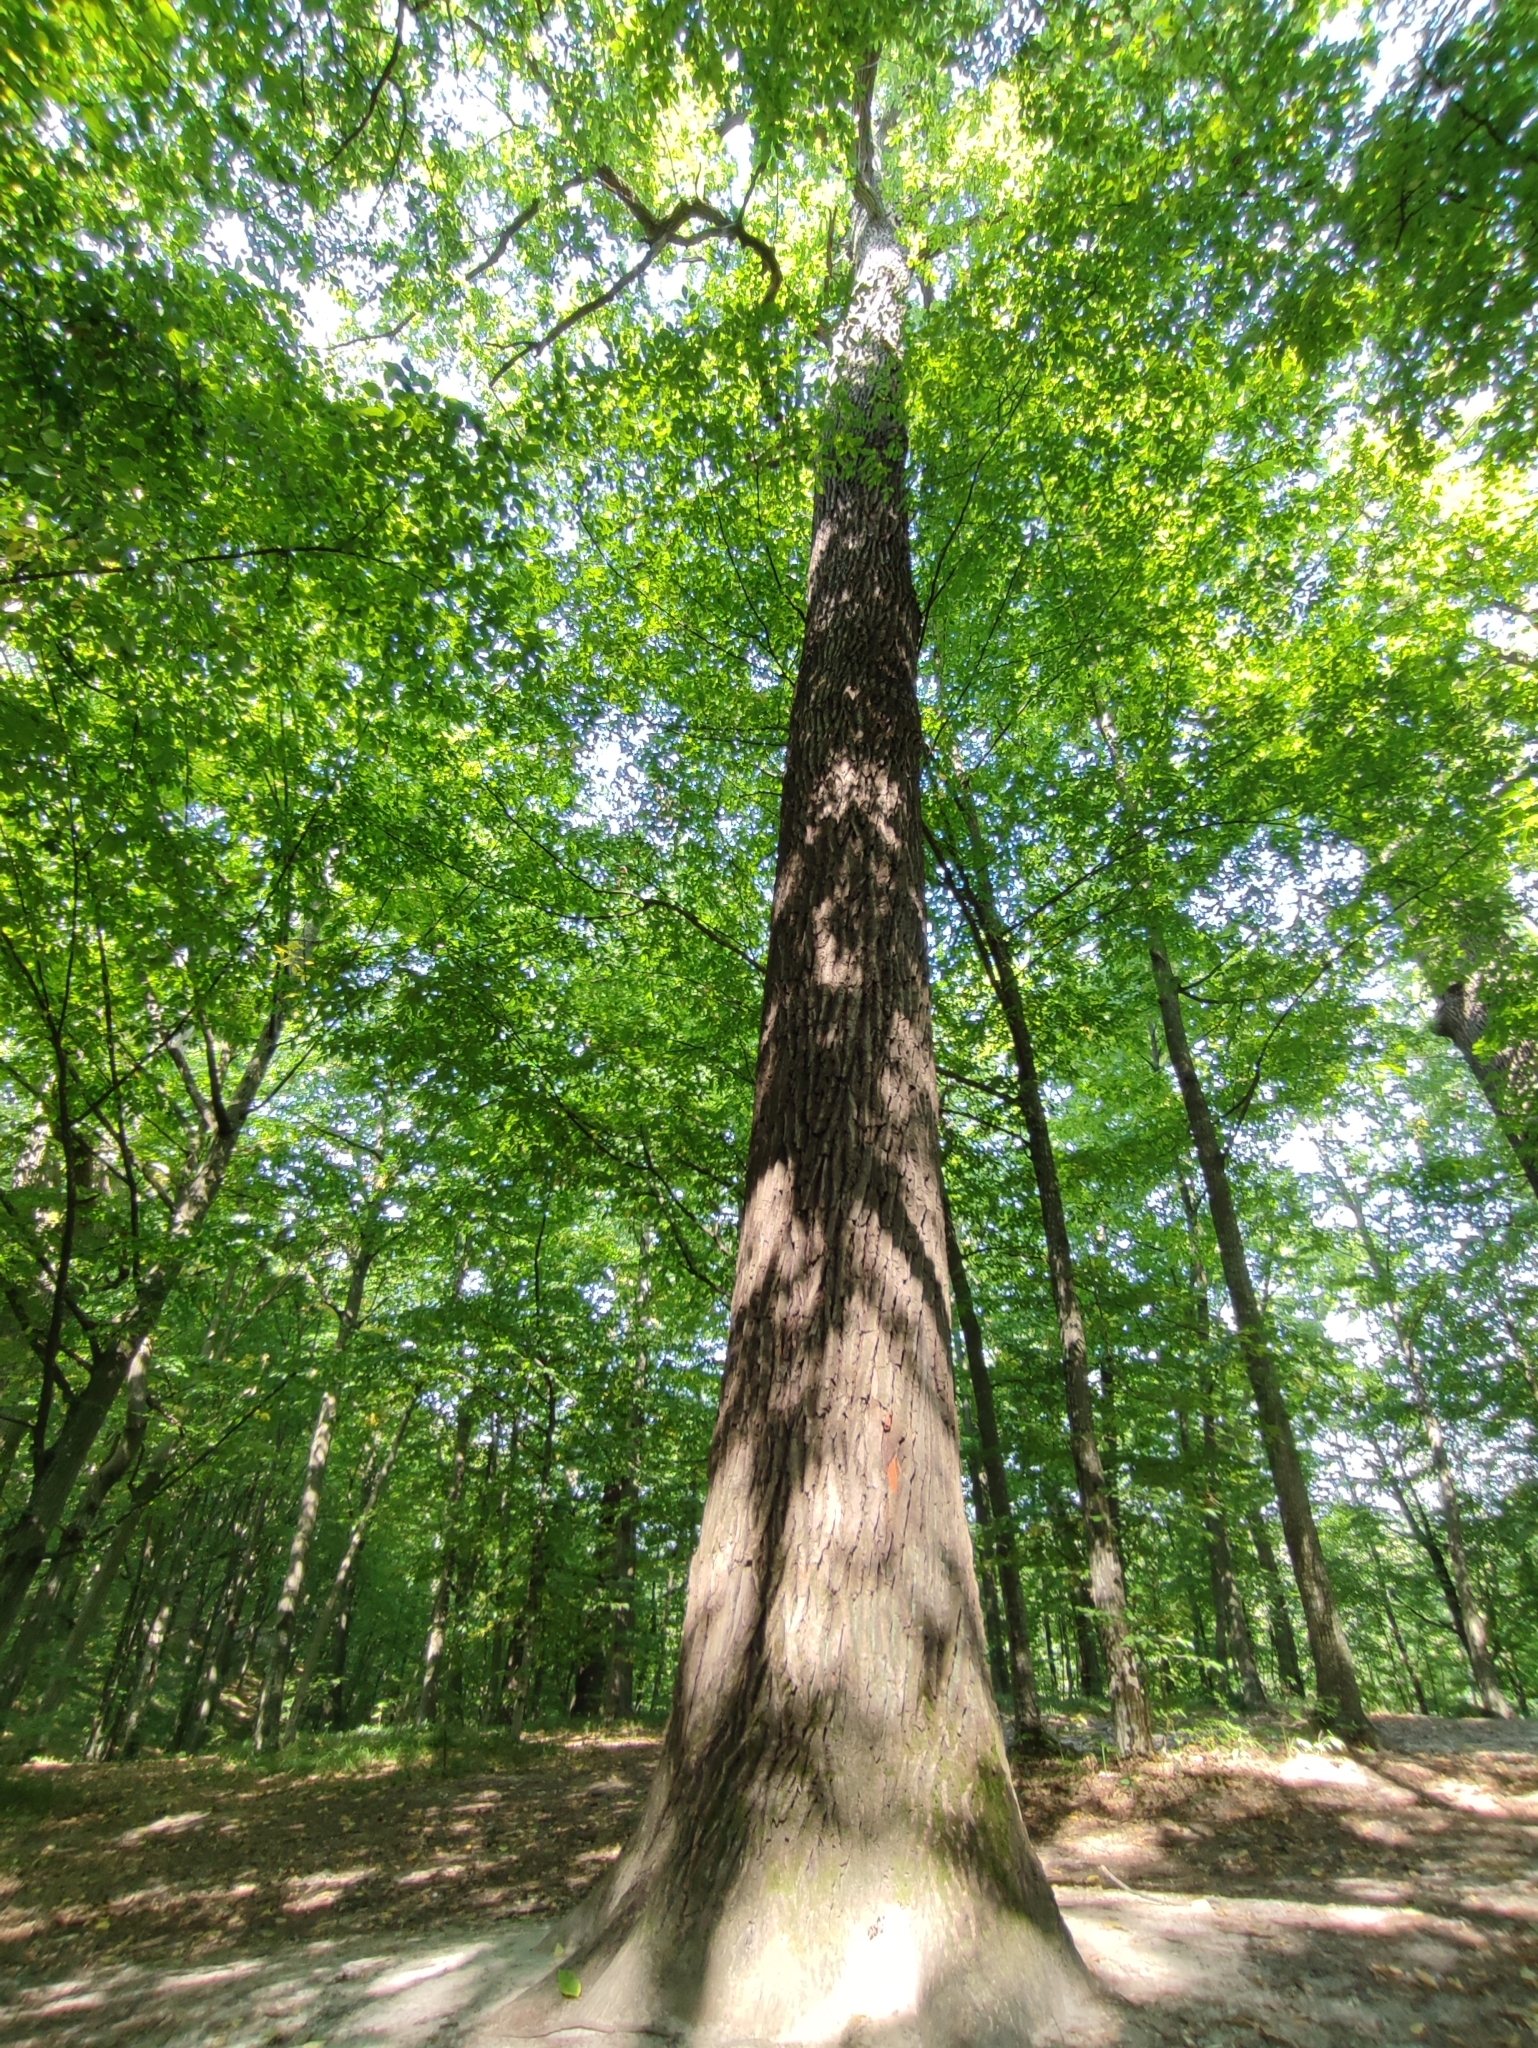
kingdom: Plantae
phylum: Tracheophyta
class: Magnoliopsida
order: Fagales
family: Fagaceae
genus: Quercus
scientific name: Quercus robur
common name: Pedunculate oak
